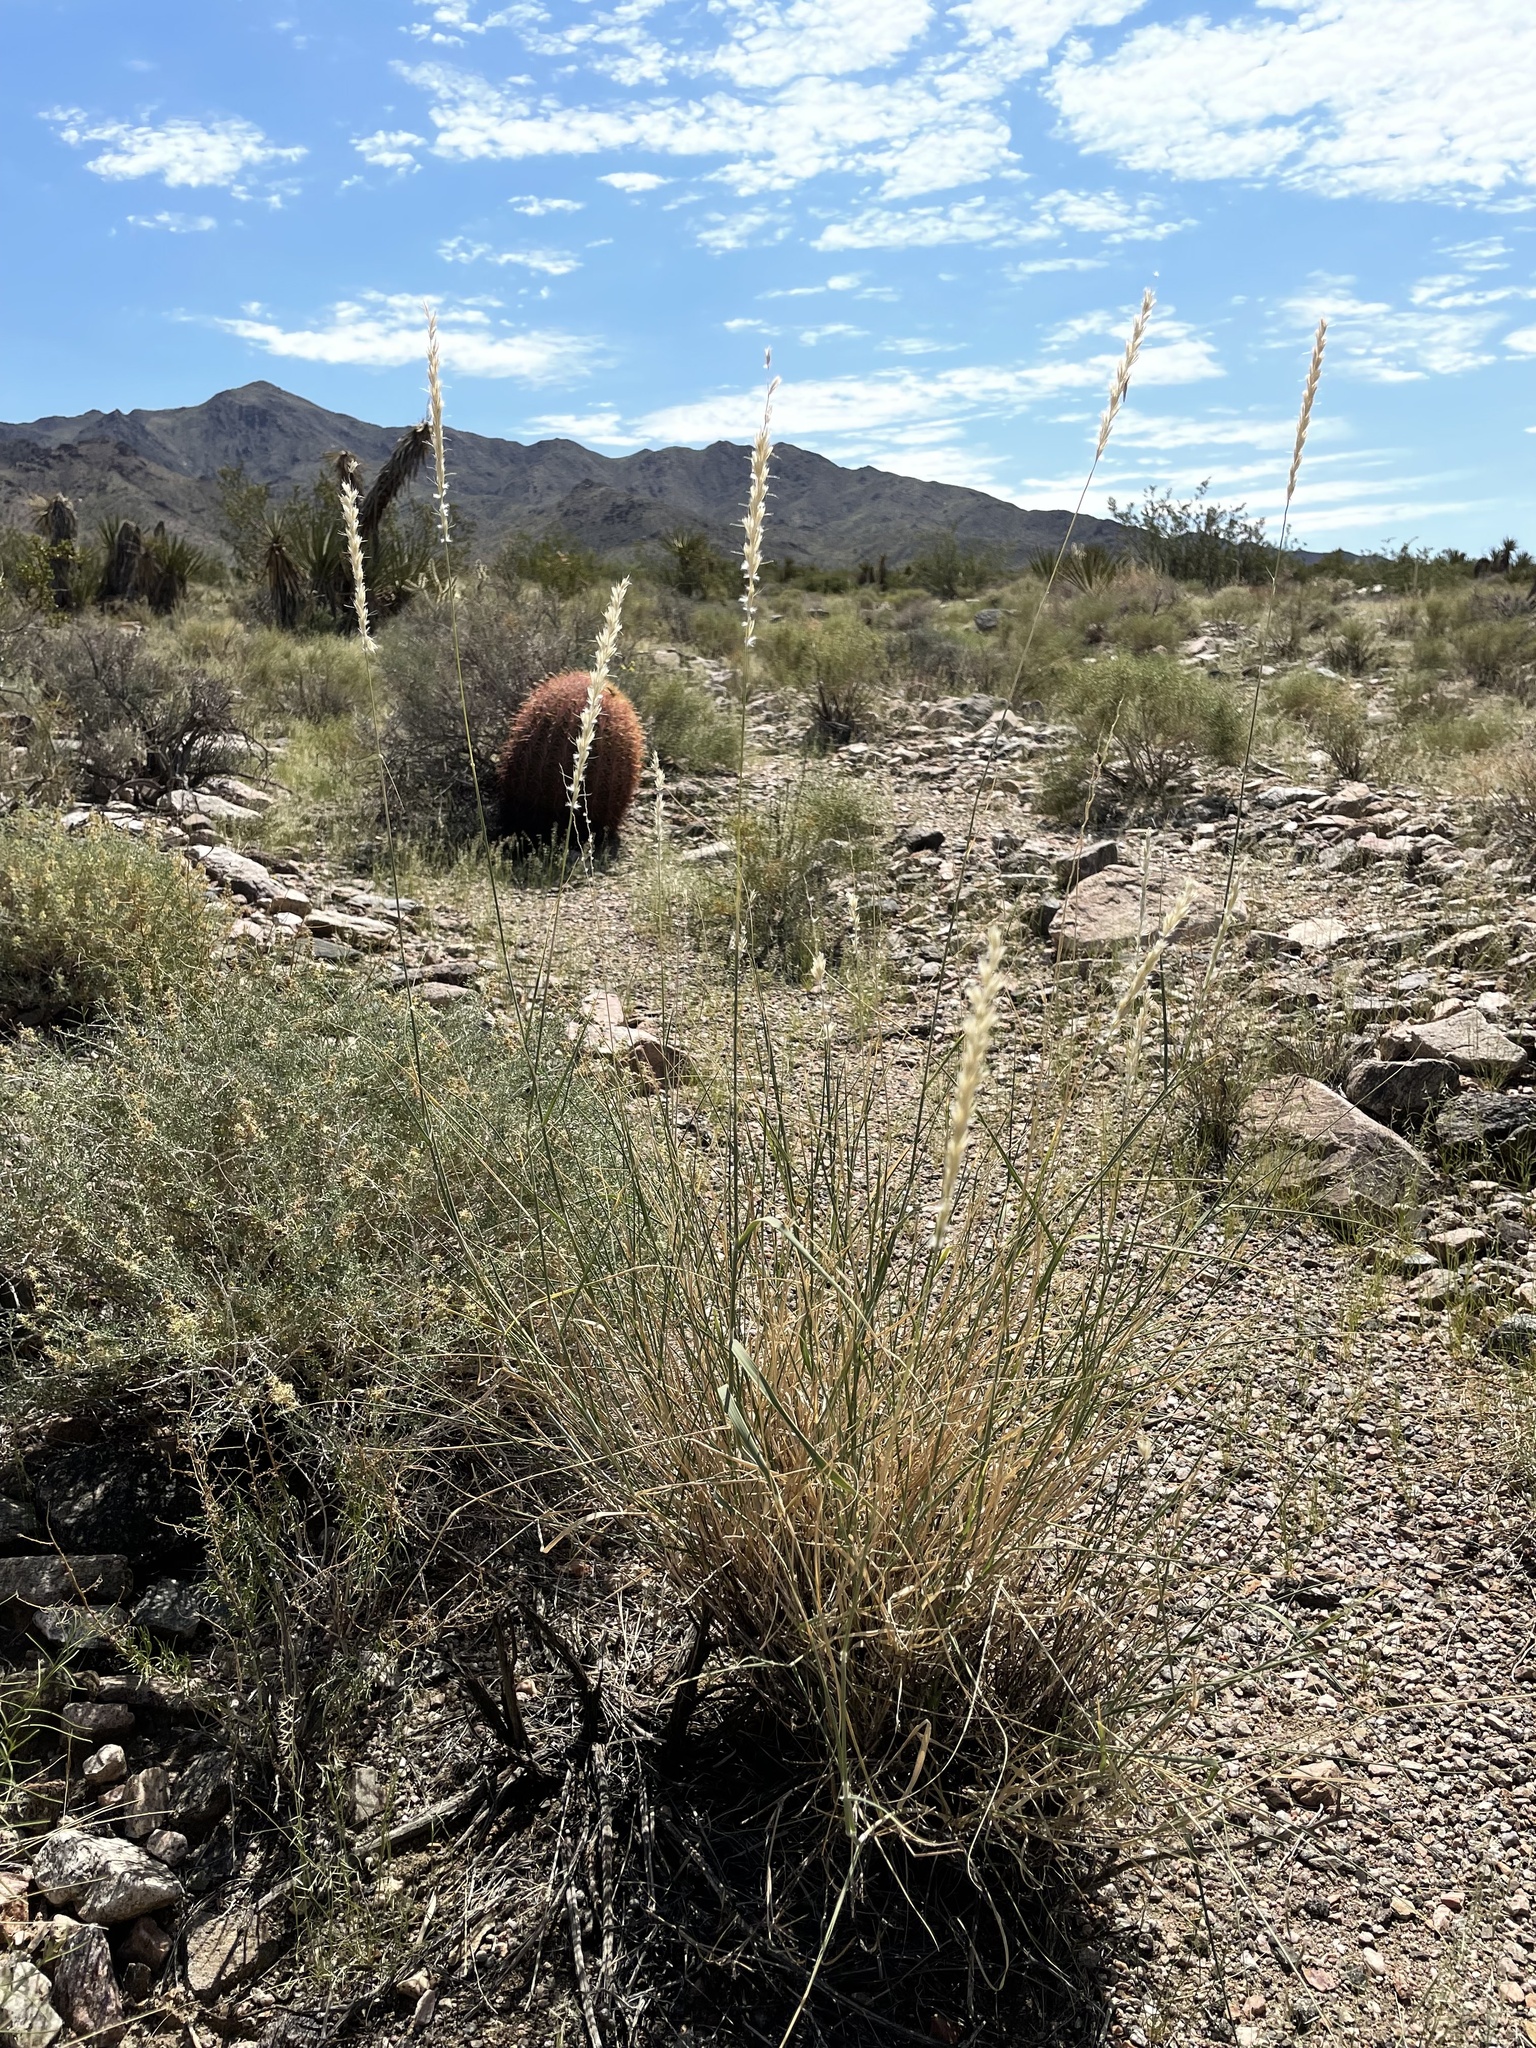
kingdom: Plantae
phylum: Tracheophyta
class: Liliopsida
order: Poales
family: Poaceae
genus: Hilaria
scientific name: Hilaria rigida
